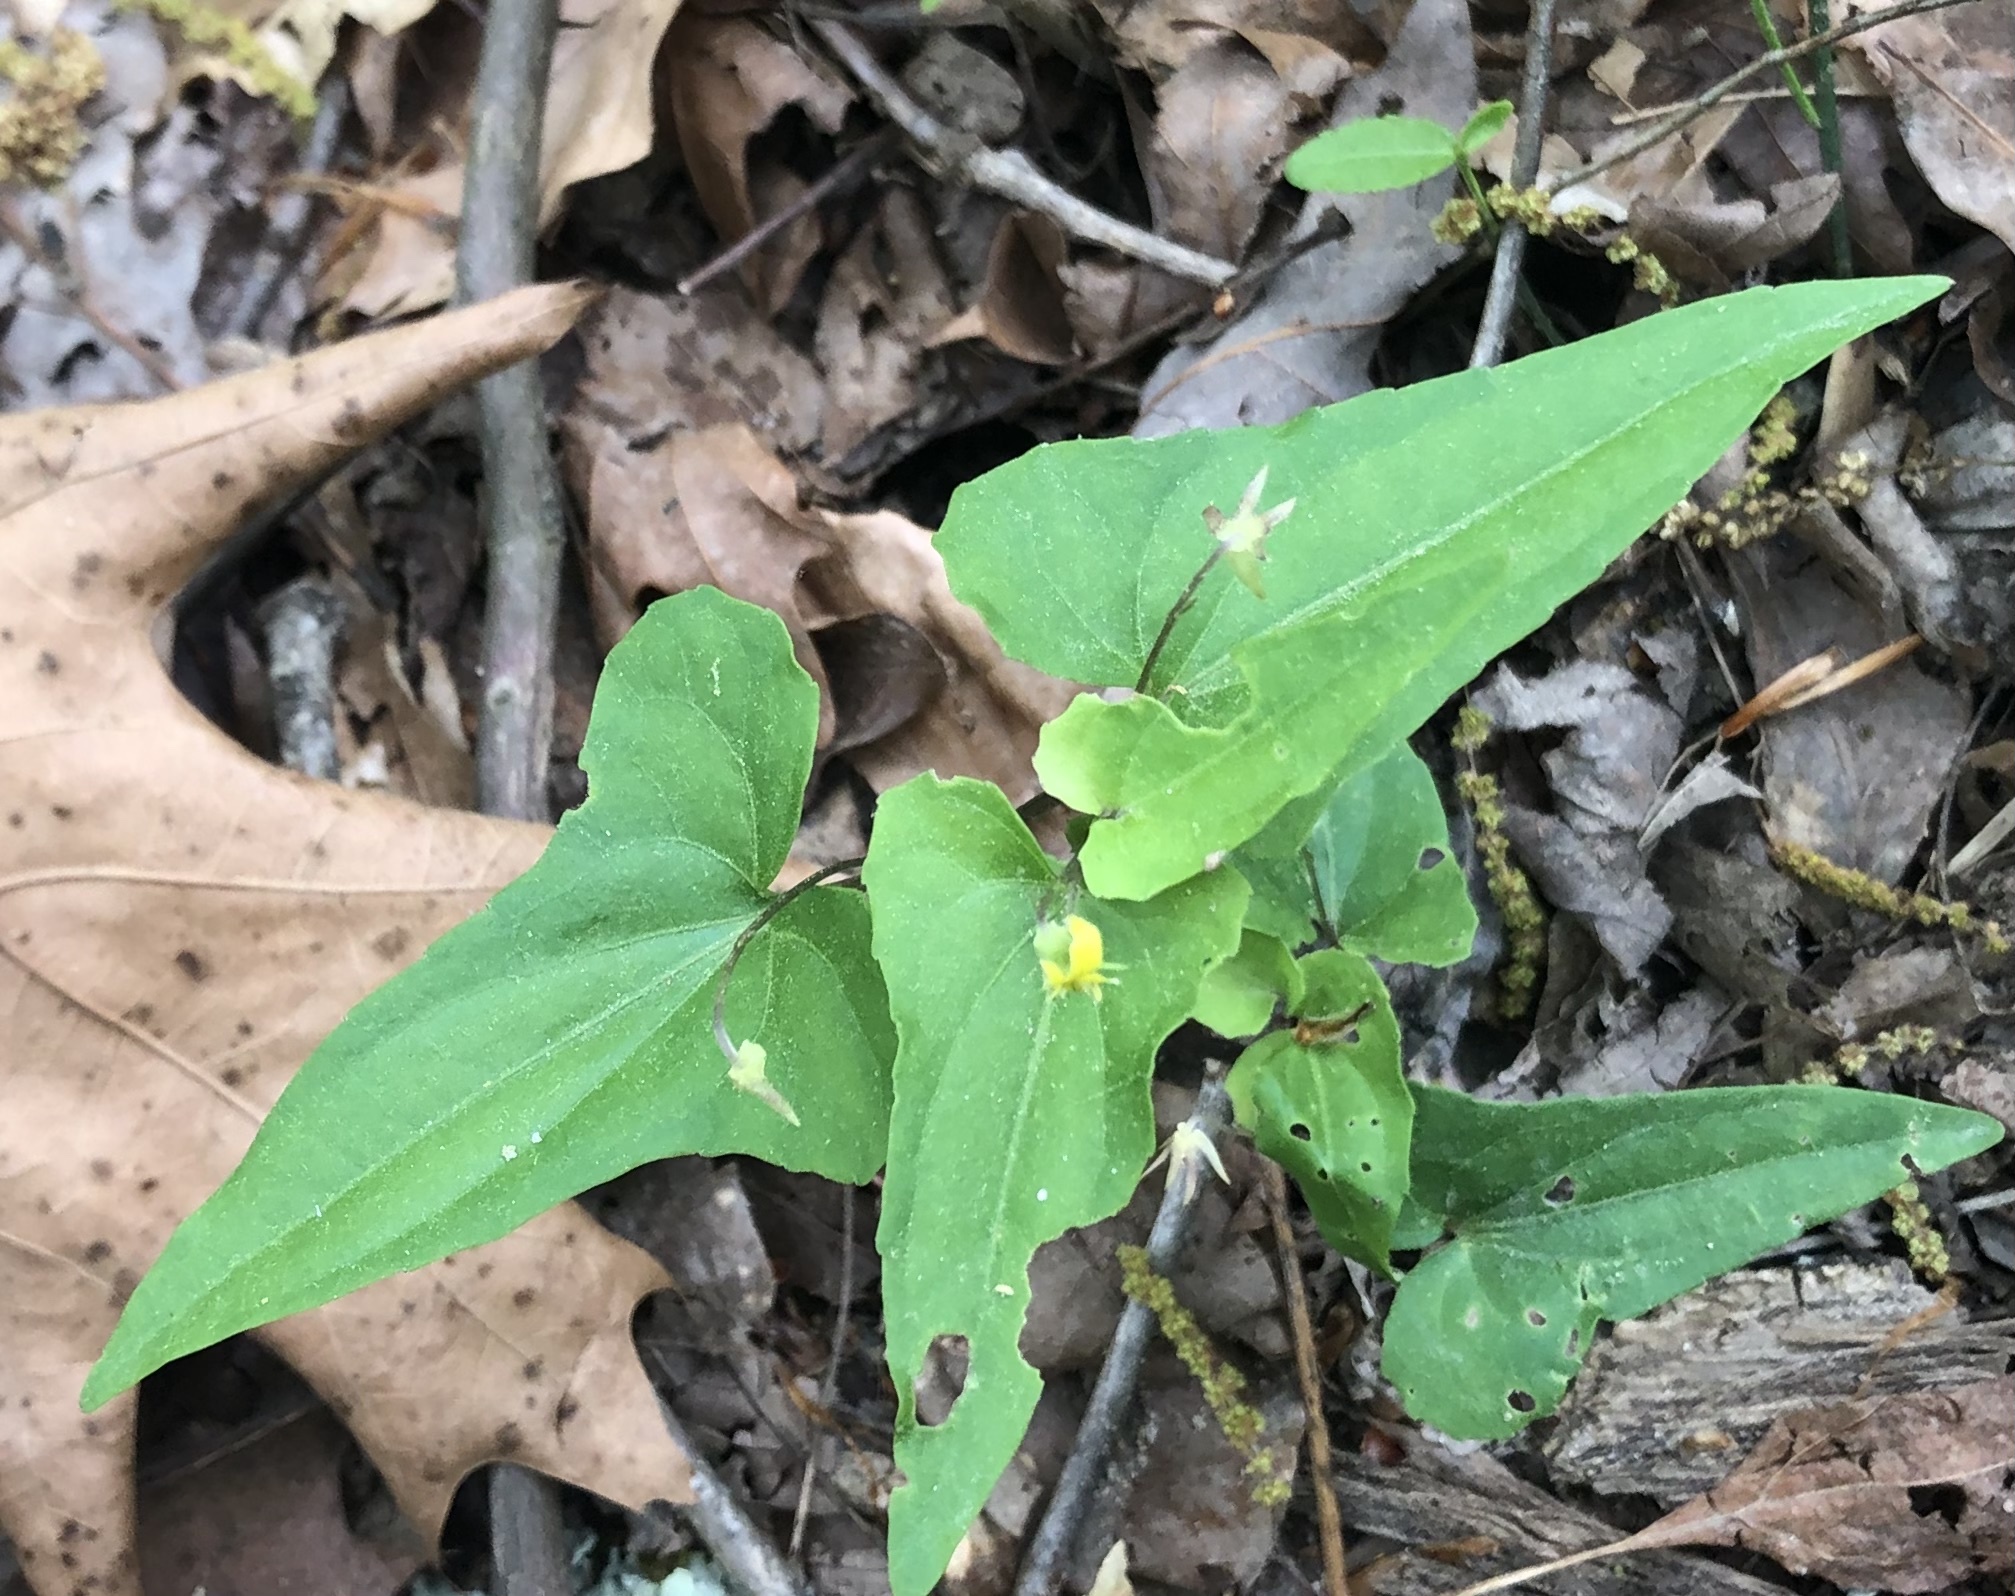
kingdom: Plantae
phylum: Tracheophyta
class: Magnoliopsida
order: Malpighiales
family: Violaceae
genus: Viola
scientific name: Viola hastata
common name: Spear-leaf violet
